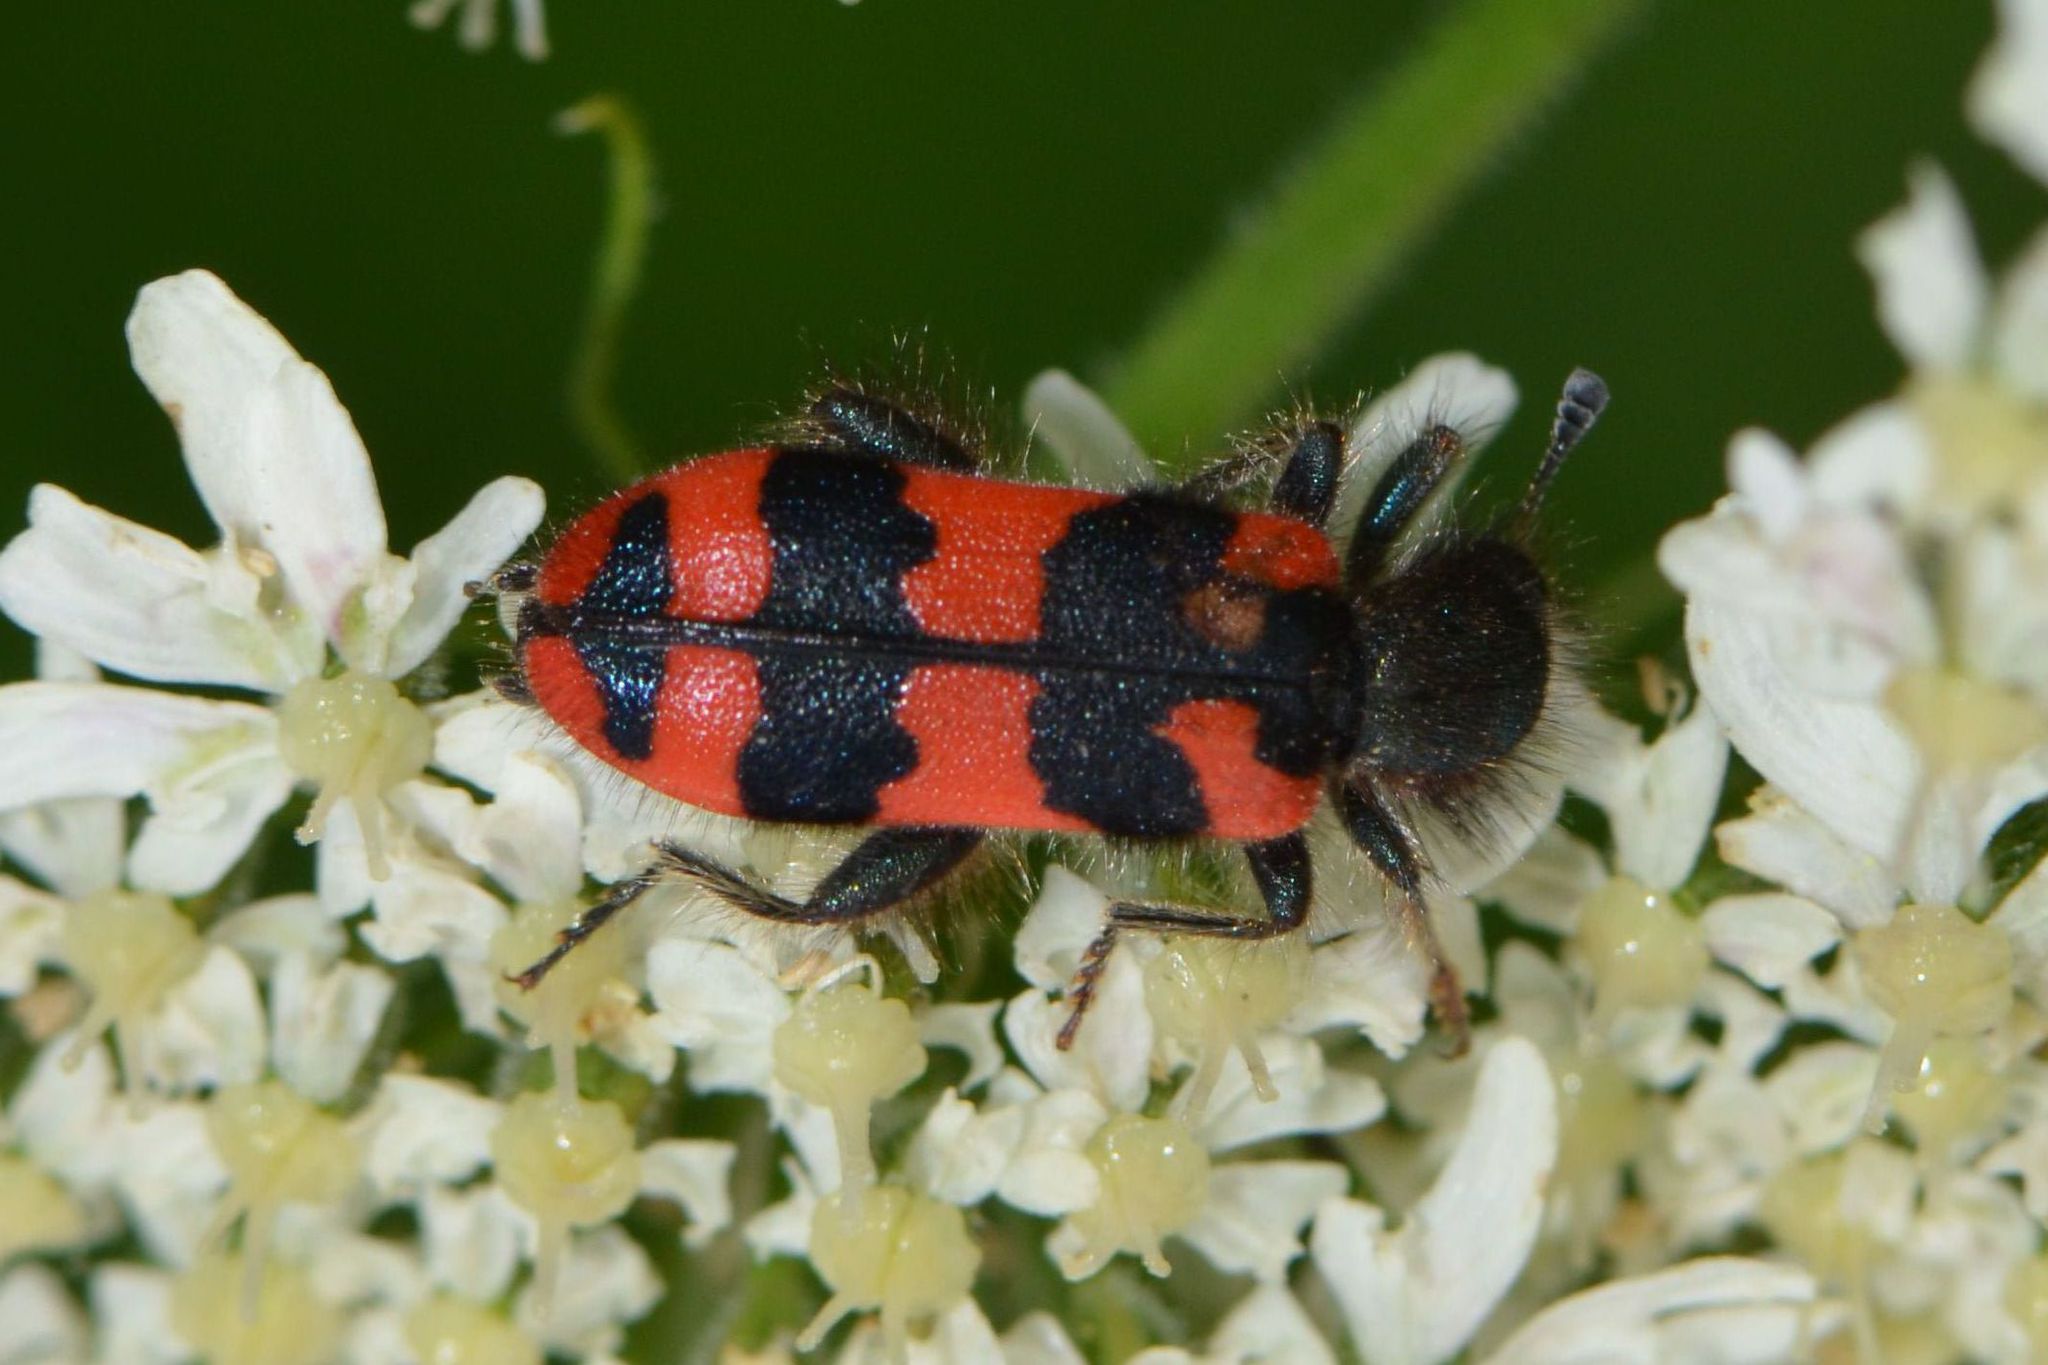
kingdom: Animalia
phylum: Arthropoda
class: Insecta
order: Coleoptera
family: Cleridae
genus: Trichodes
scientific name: Trichodes alvearius
